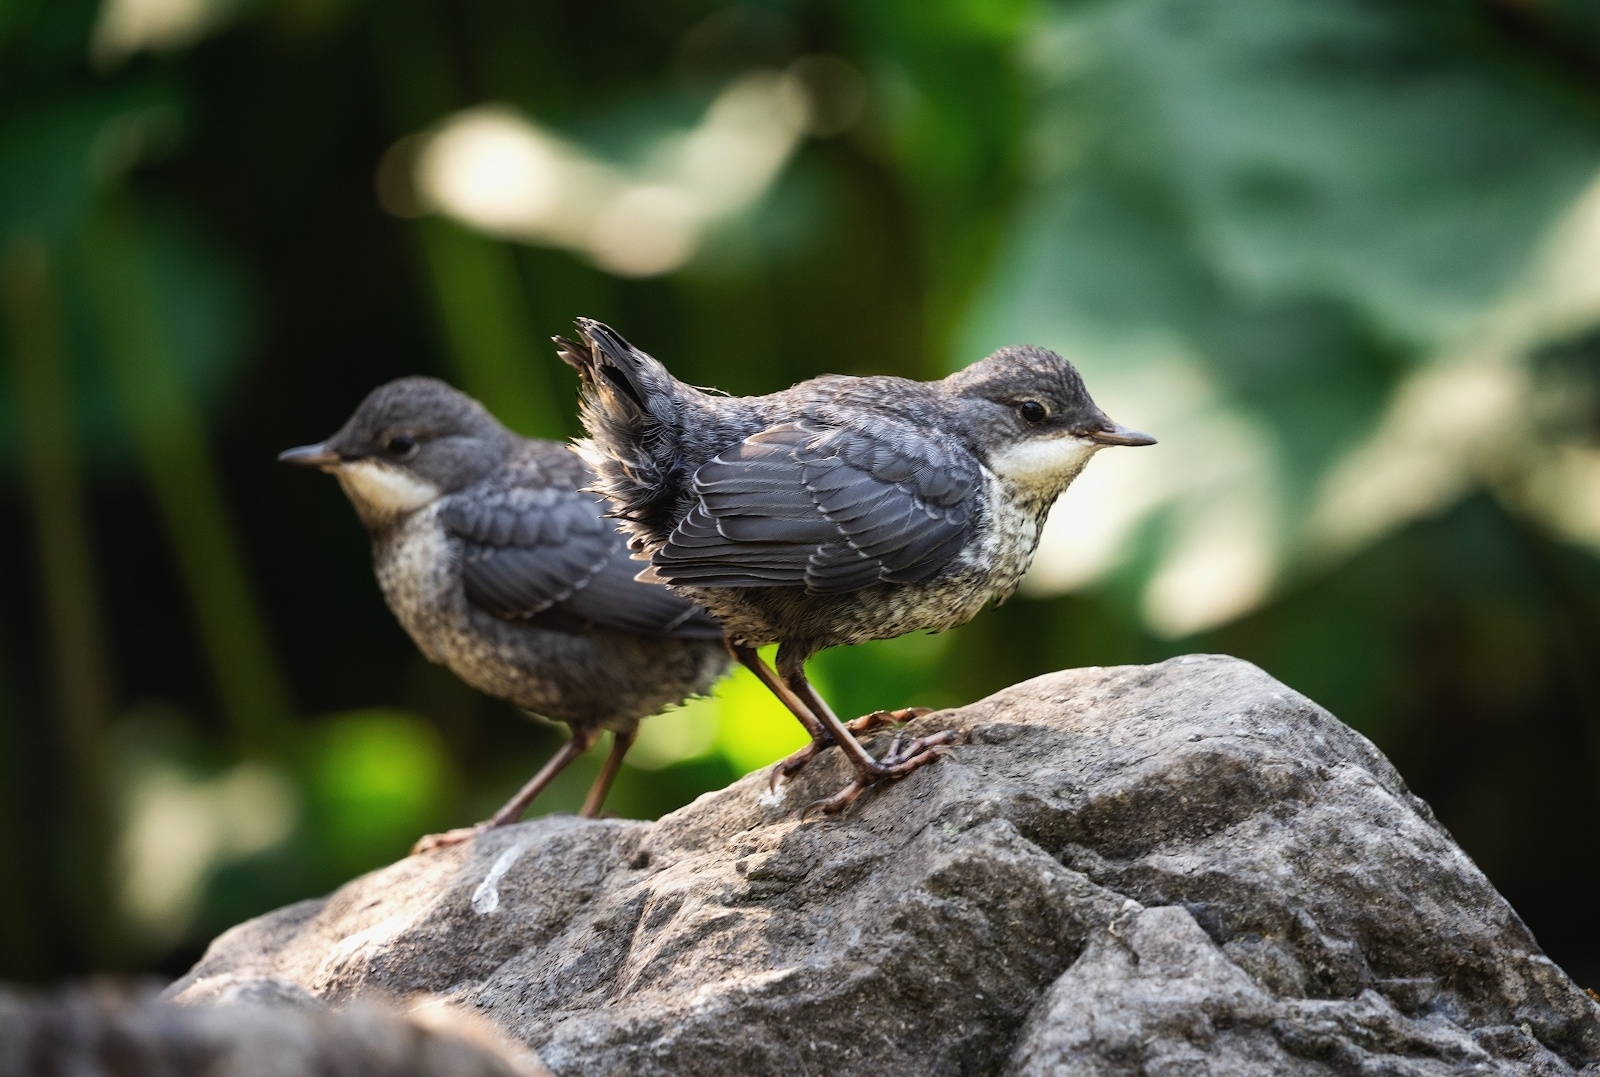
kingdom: Animalia
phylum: Chordata
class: Aves
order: Passeriformes
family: Cinclidae
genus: Cinclus
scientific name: Cinclus cinclus
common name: White-throated dipper
